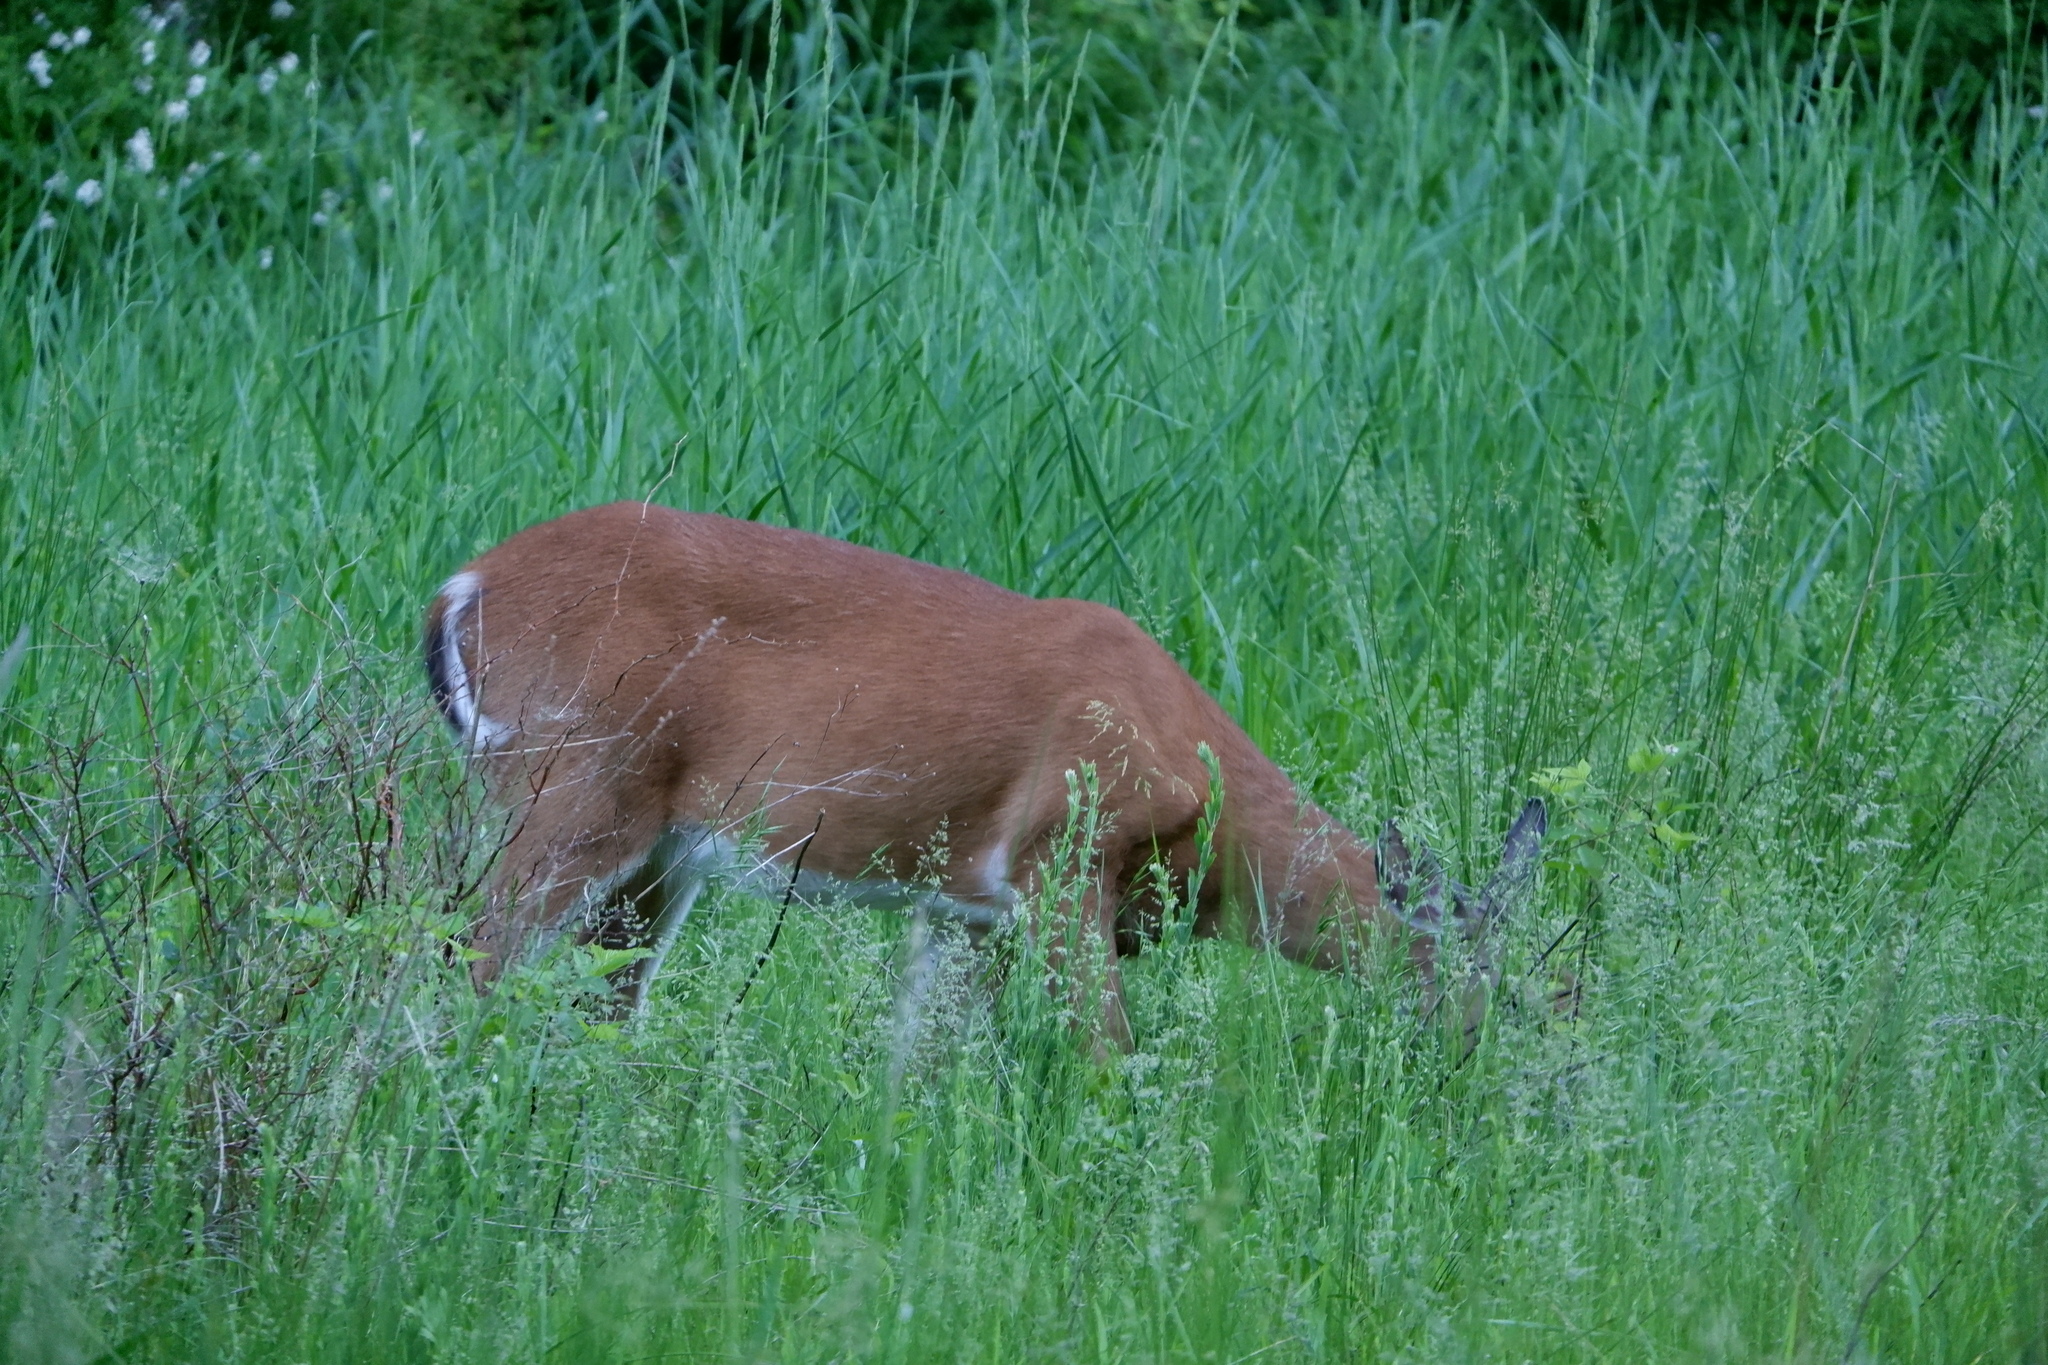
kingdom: Animalia
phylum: Chordata
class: Mammalia
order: Artiodactyla
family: Cervidae
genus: Odocoileus
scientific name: Odocoileus virginianus
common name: White-tailed deer
